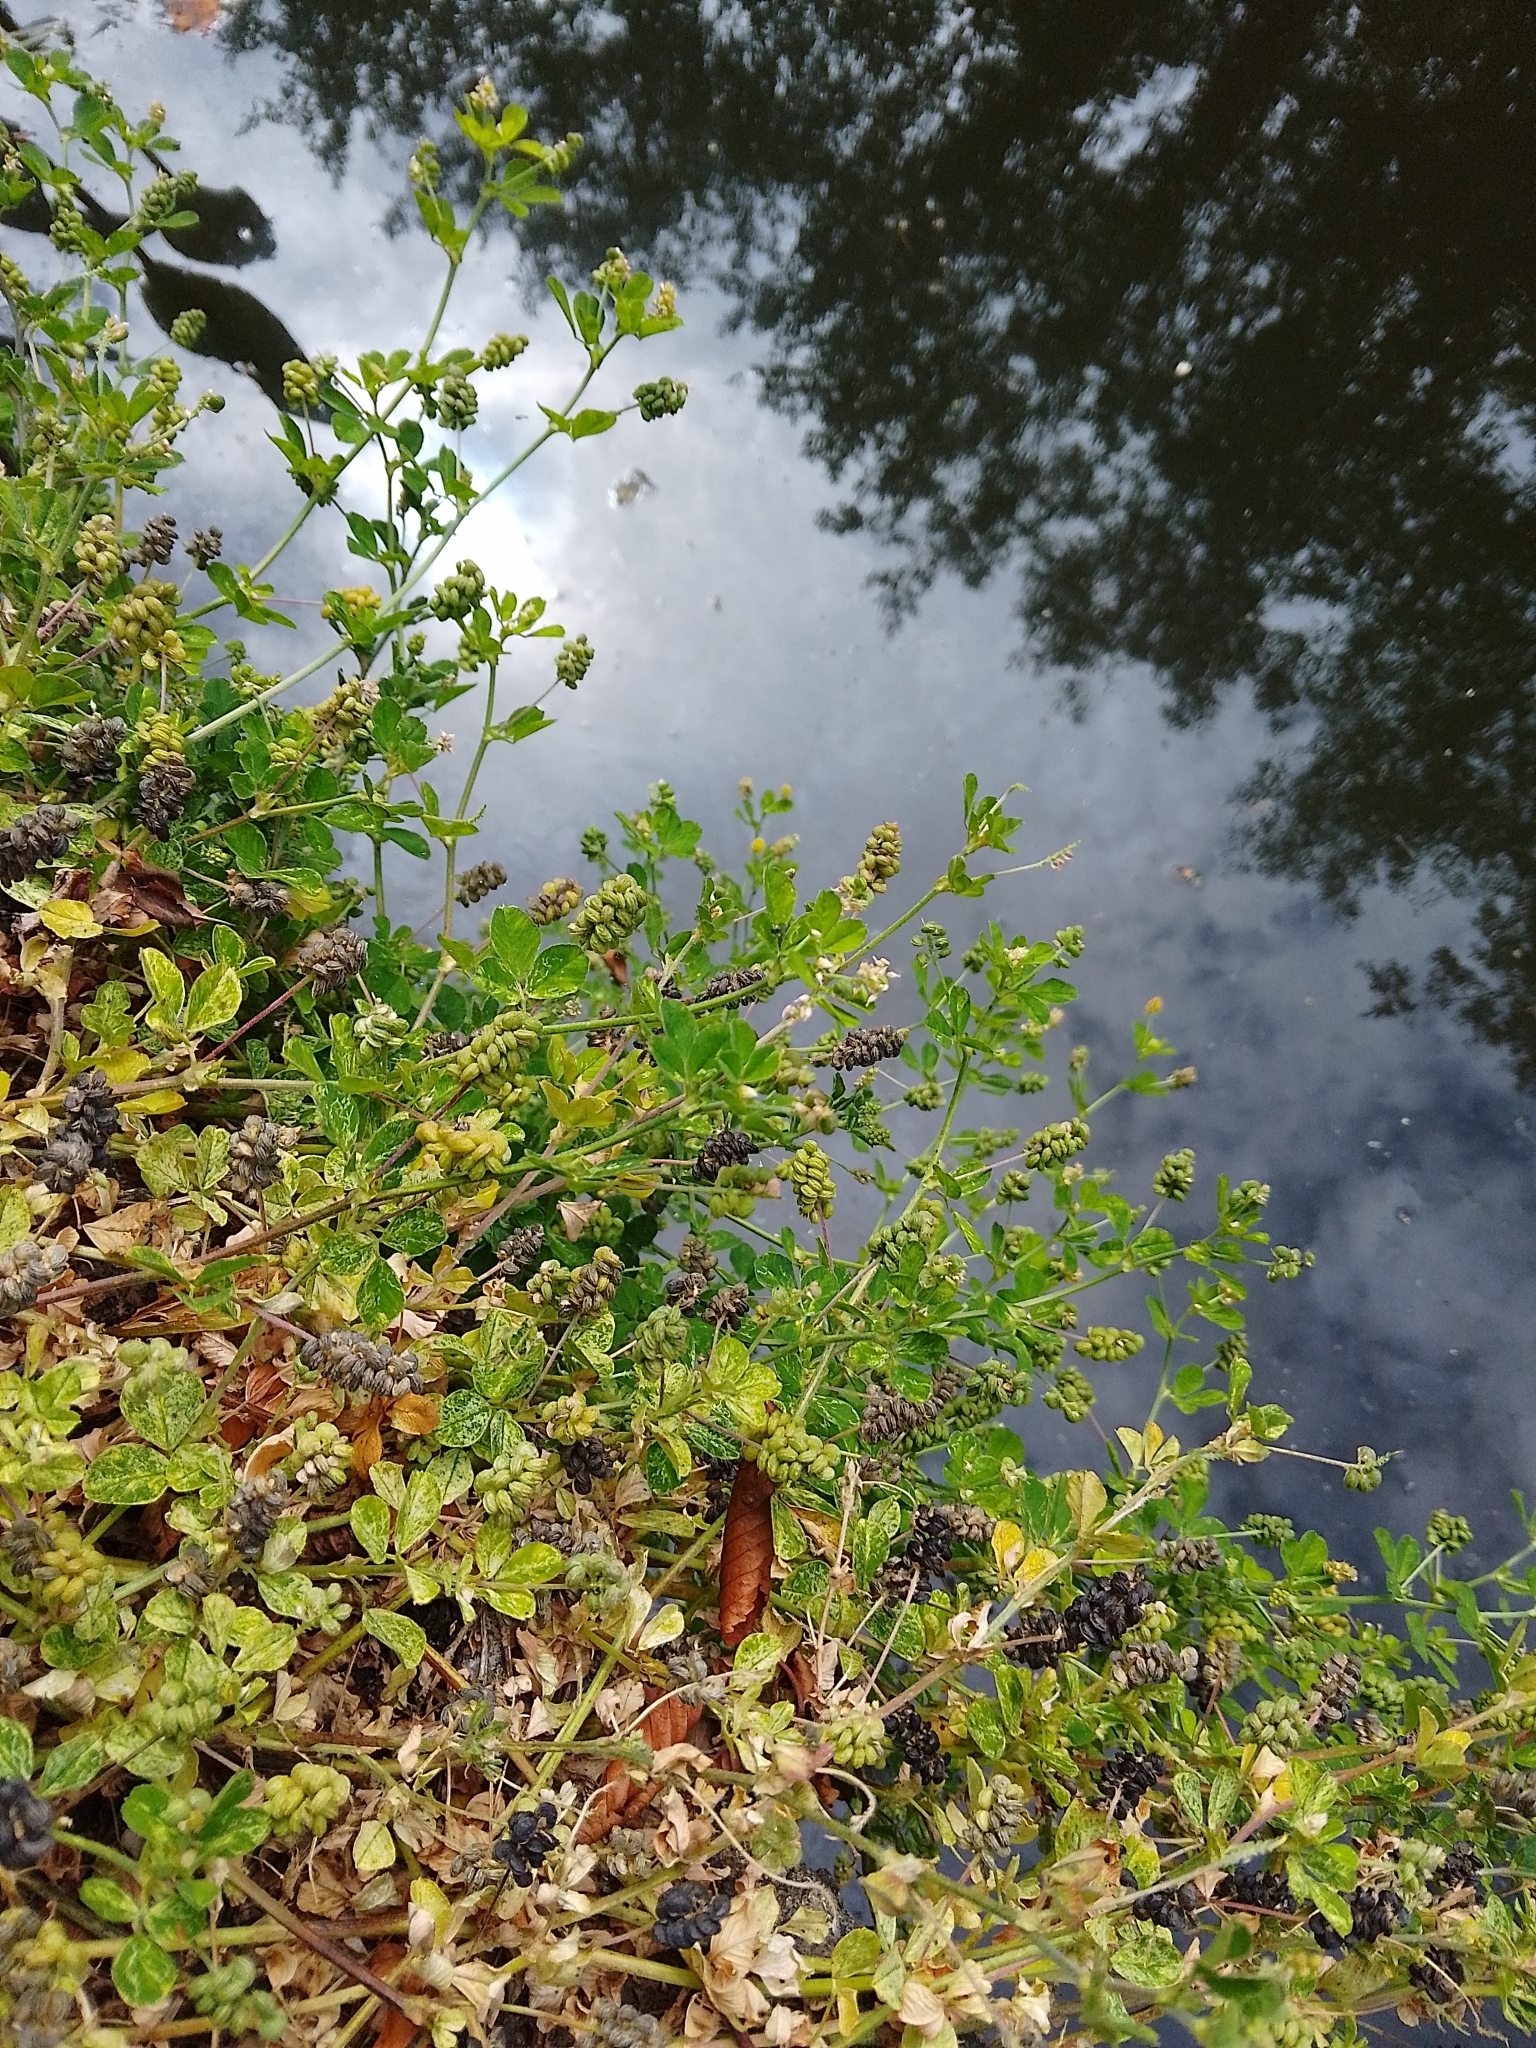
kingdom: Plantae
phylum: Tracheophyta
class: Magnoliopsida
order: Fabales
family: Fabaceae
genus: Medicago
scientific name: Medicago lupulina
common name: Black medick
